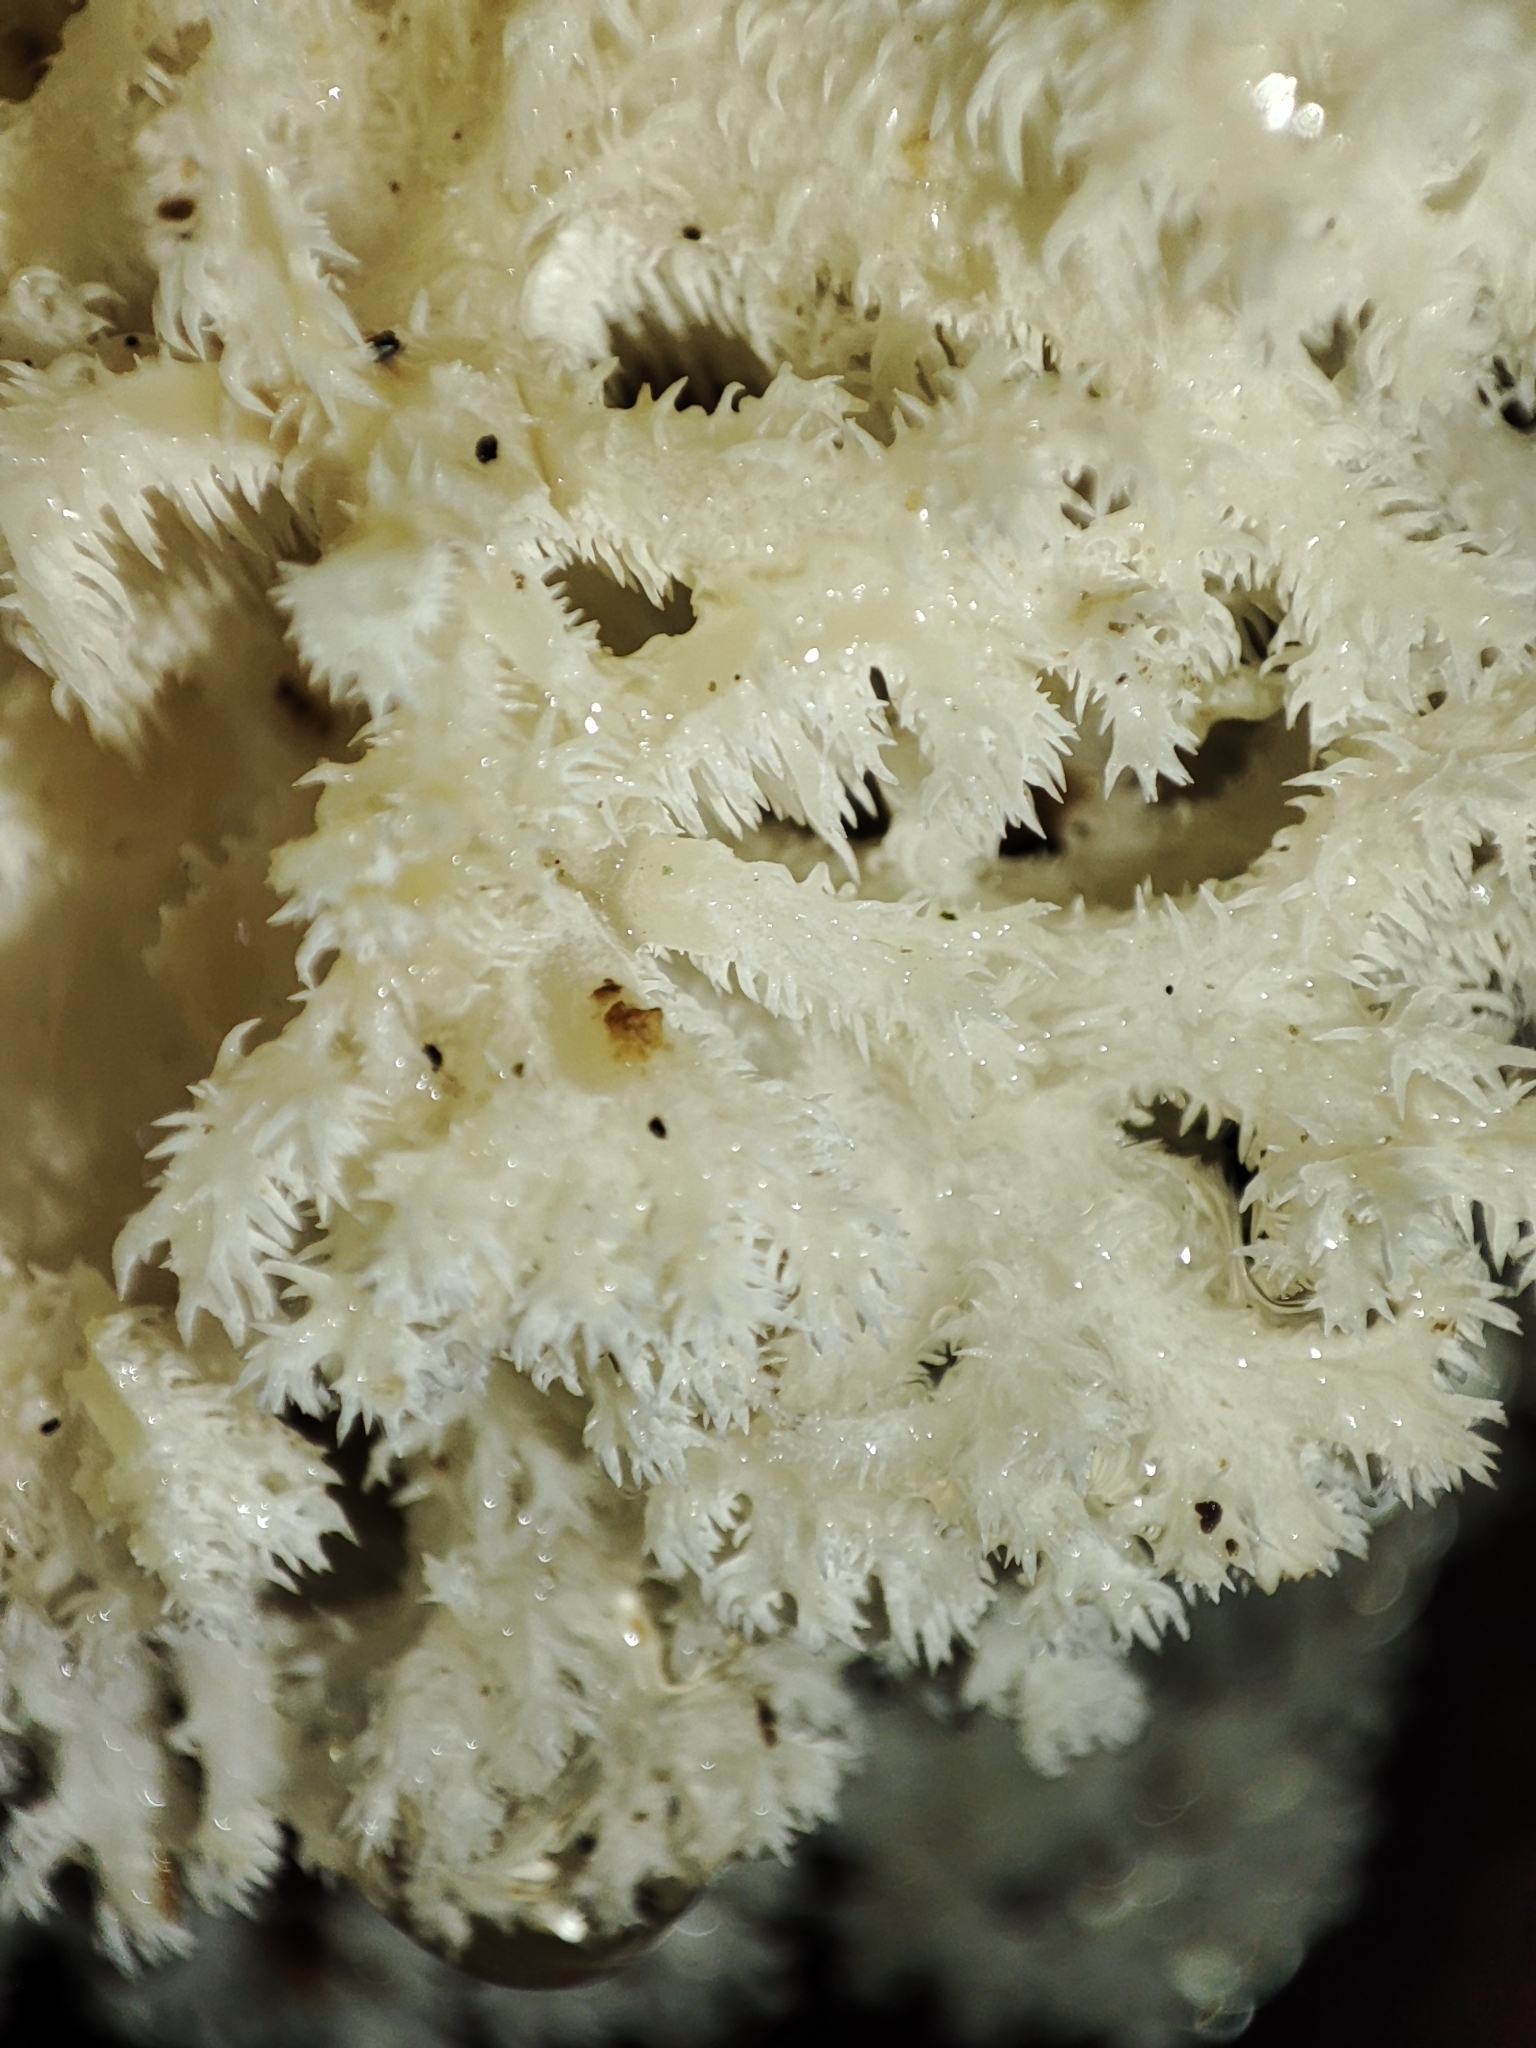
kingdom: Fungi
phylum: Basidiomycota
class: Agaricomycetes
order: Russulales
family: Hericiaceae
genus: Hericium
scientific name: Hericium coralloides
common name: Coral tooth
